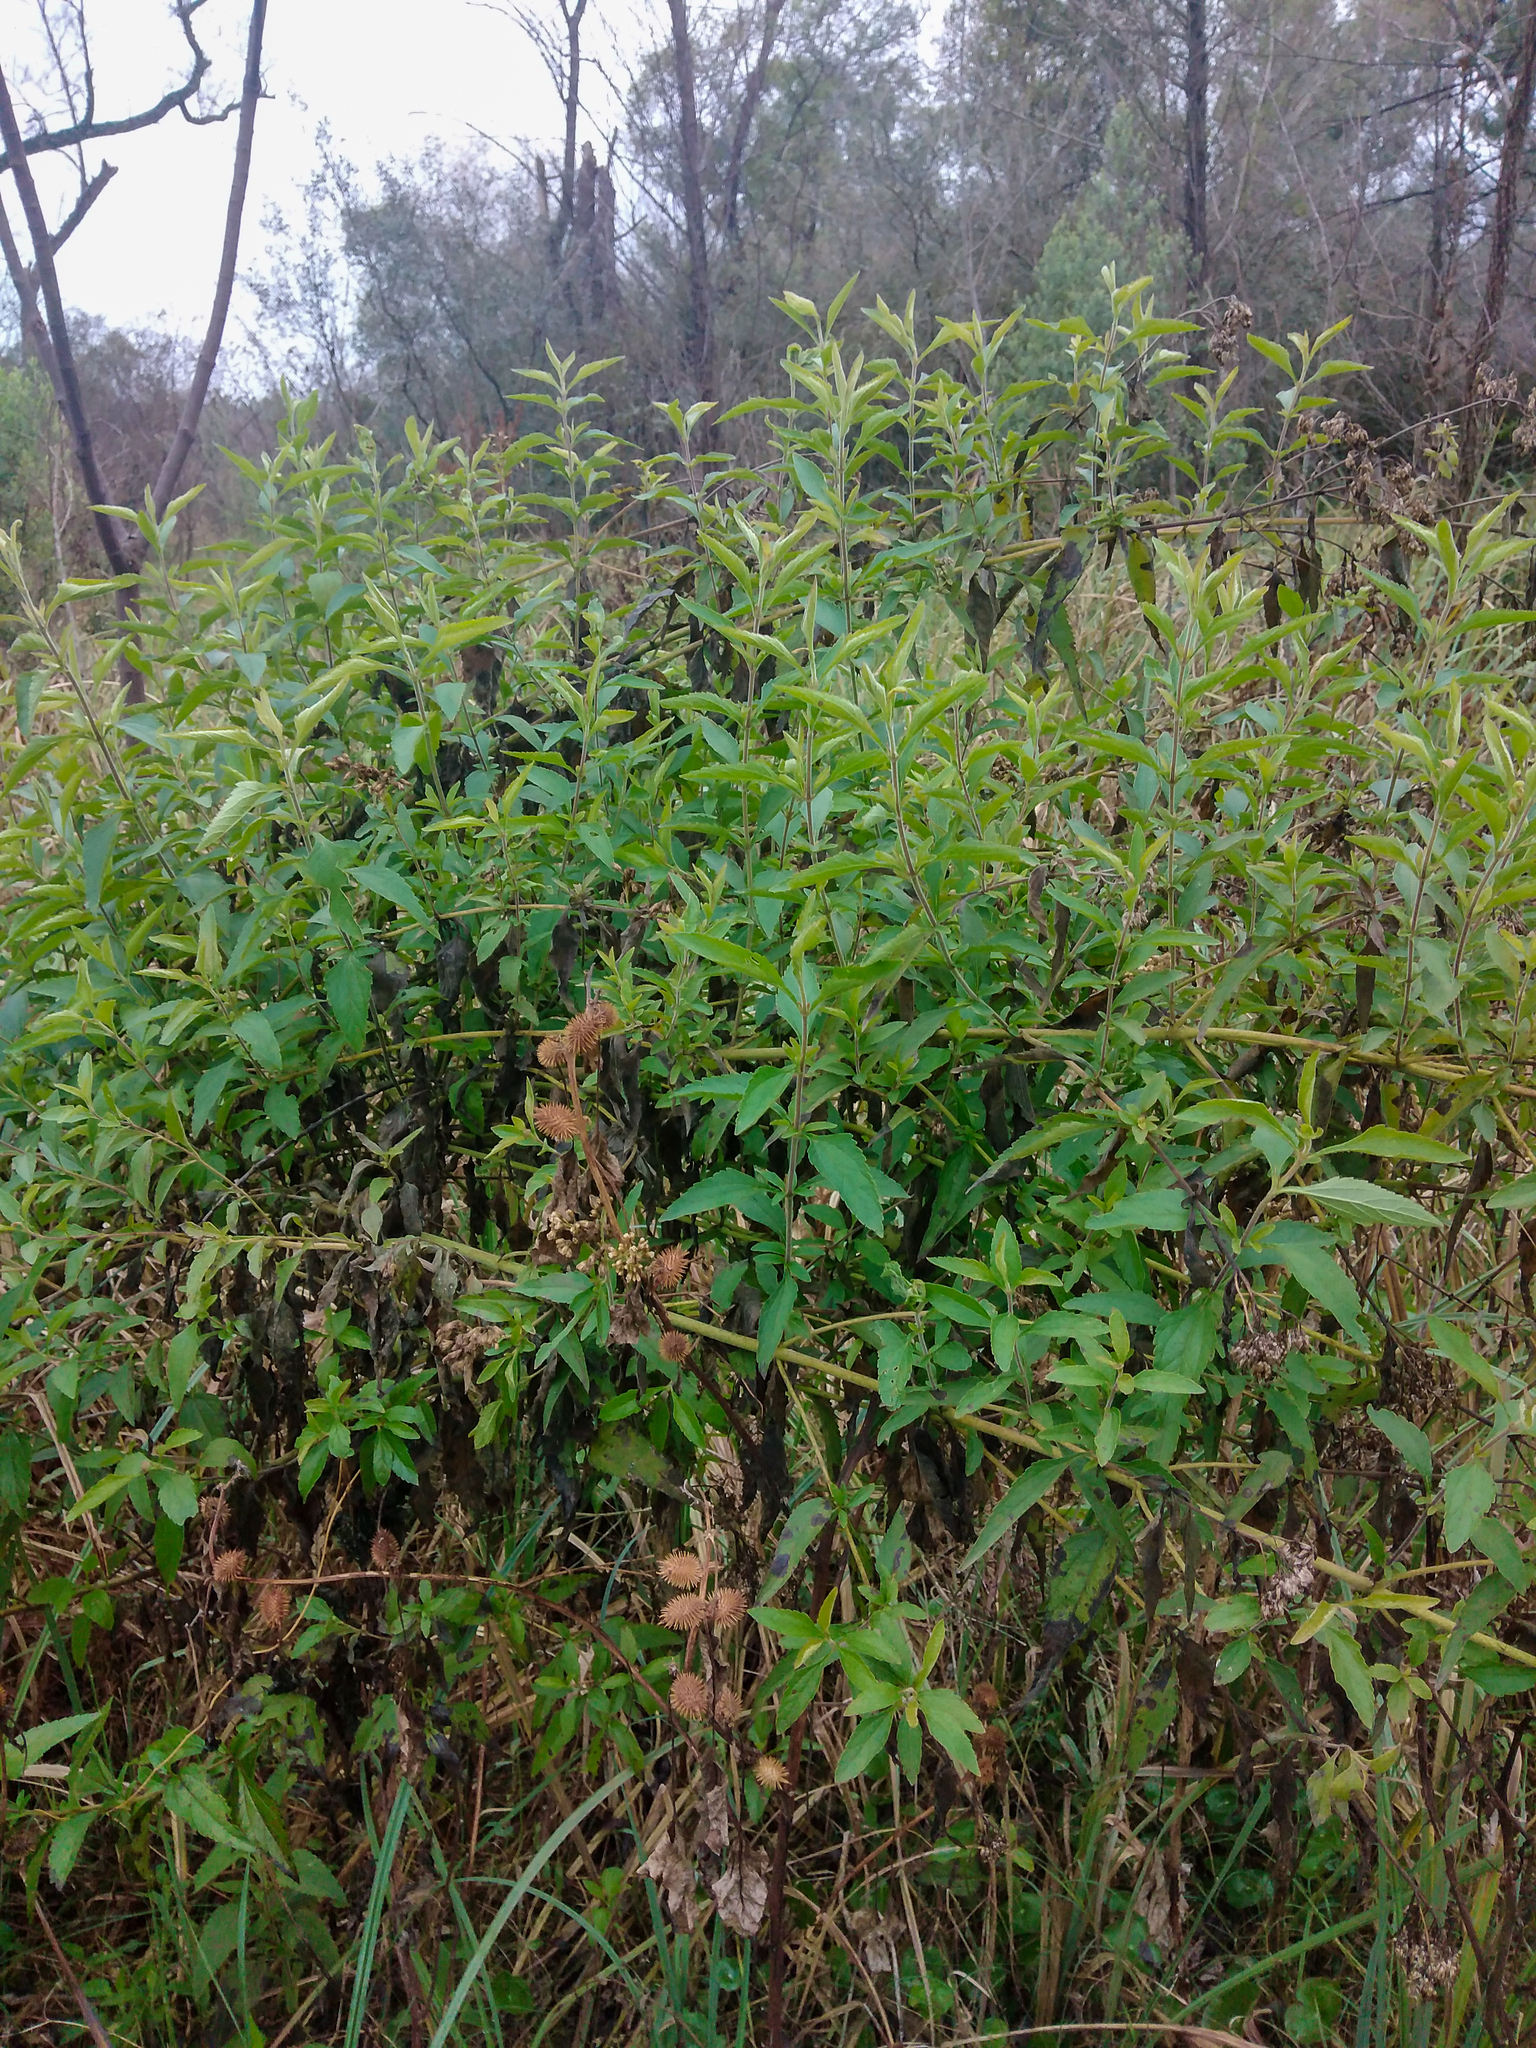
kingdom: Plantae
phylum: Tracheophyta
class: Magnoliopsida
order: Asterales
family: Asteraceae
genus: Austroeupatorium
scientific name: Austroeupatorium inulifolium
